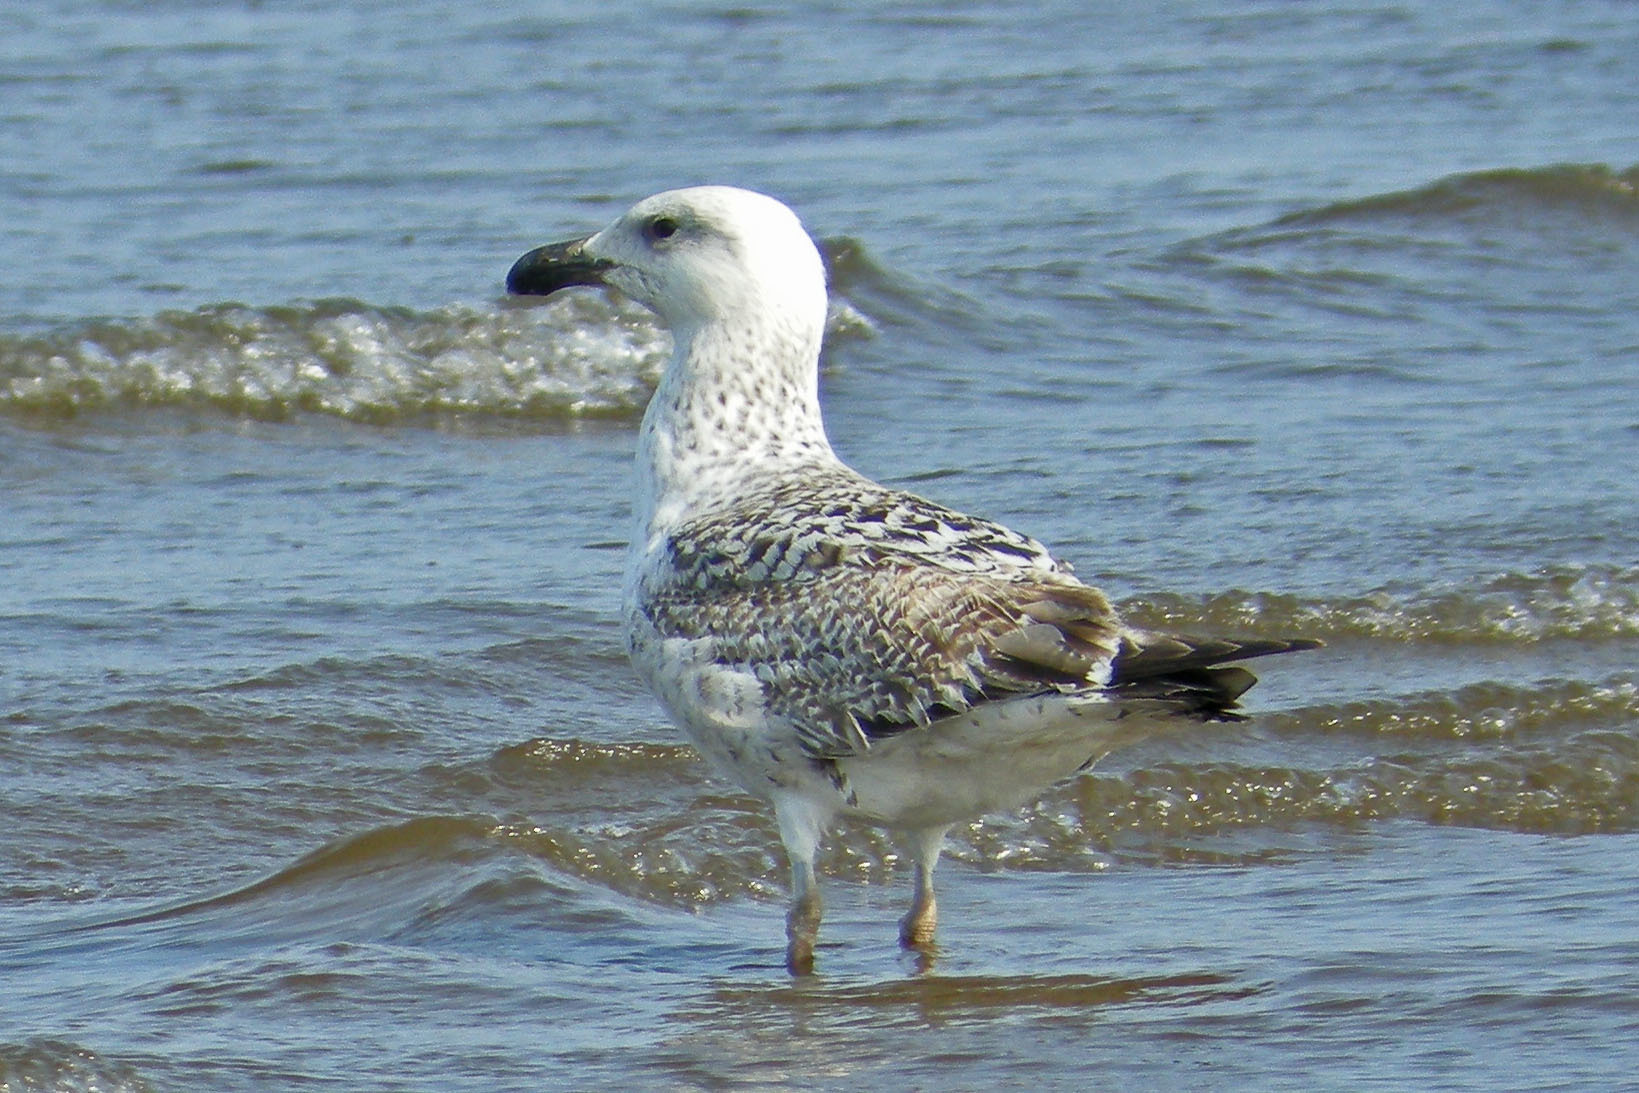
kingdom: Animalia
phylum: Chordata
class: Aves
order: Charadriiformes
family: Laridae
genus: Larus
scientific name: Larus marinus
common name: Great black-backed gull
